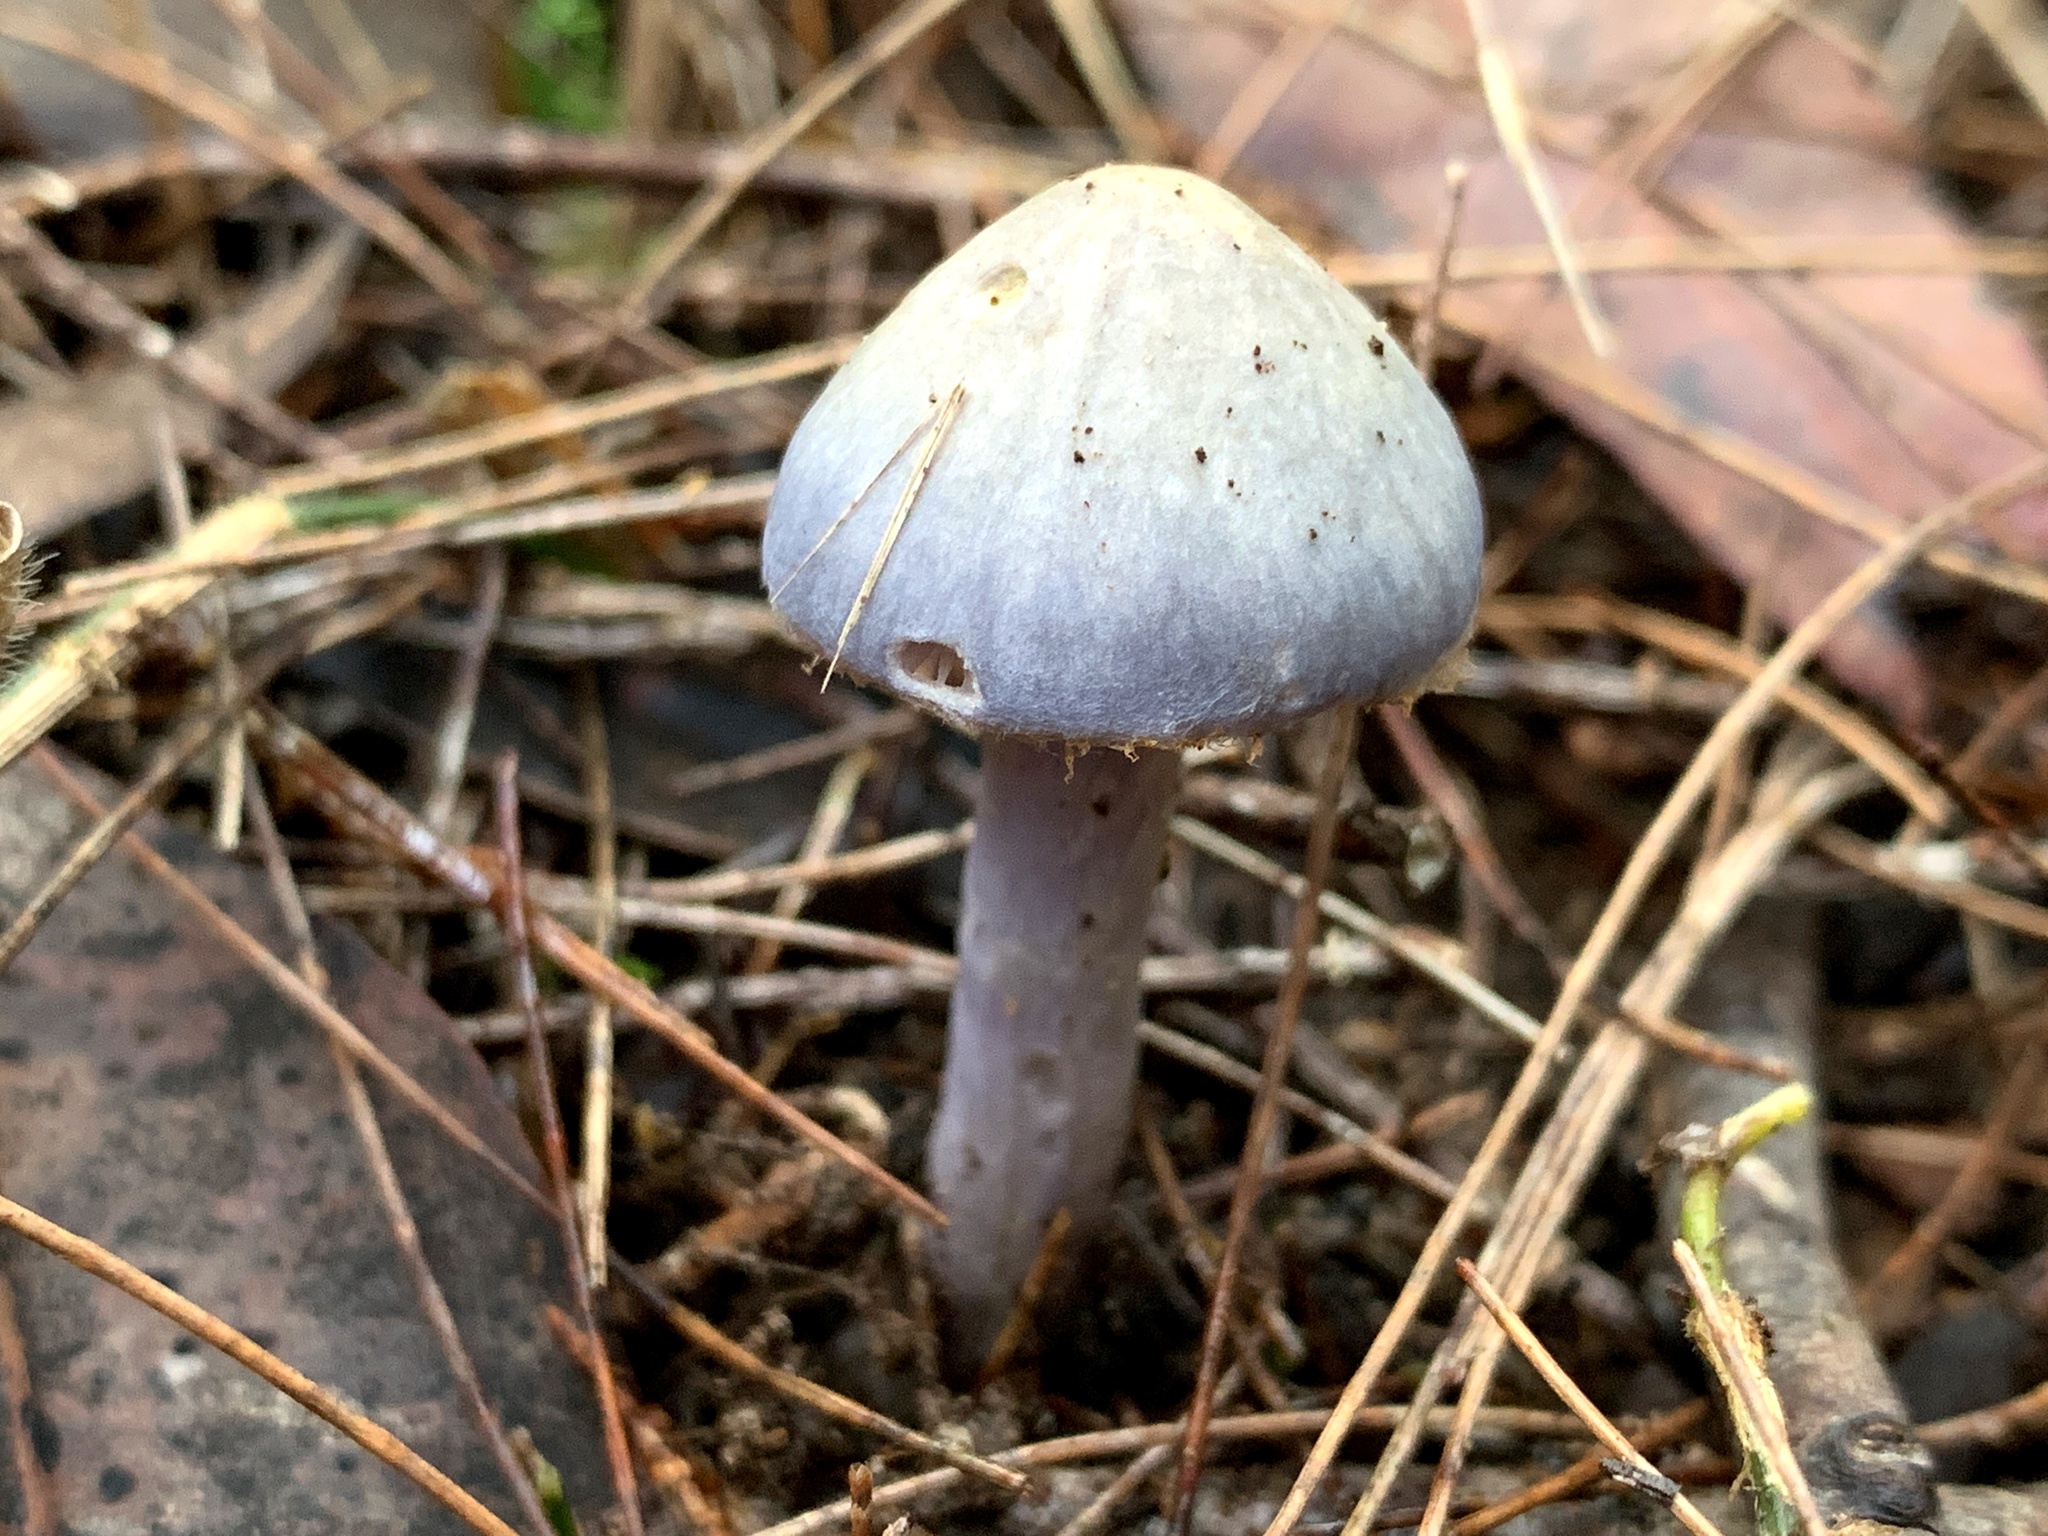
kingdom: Fungi
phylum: Basidiomycota
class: Agaricomycetes
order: Agaricales
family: Cortinariaceae
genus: Cortinarius
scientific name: Cortinarius rotundisporus
